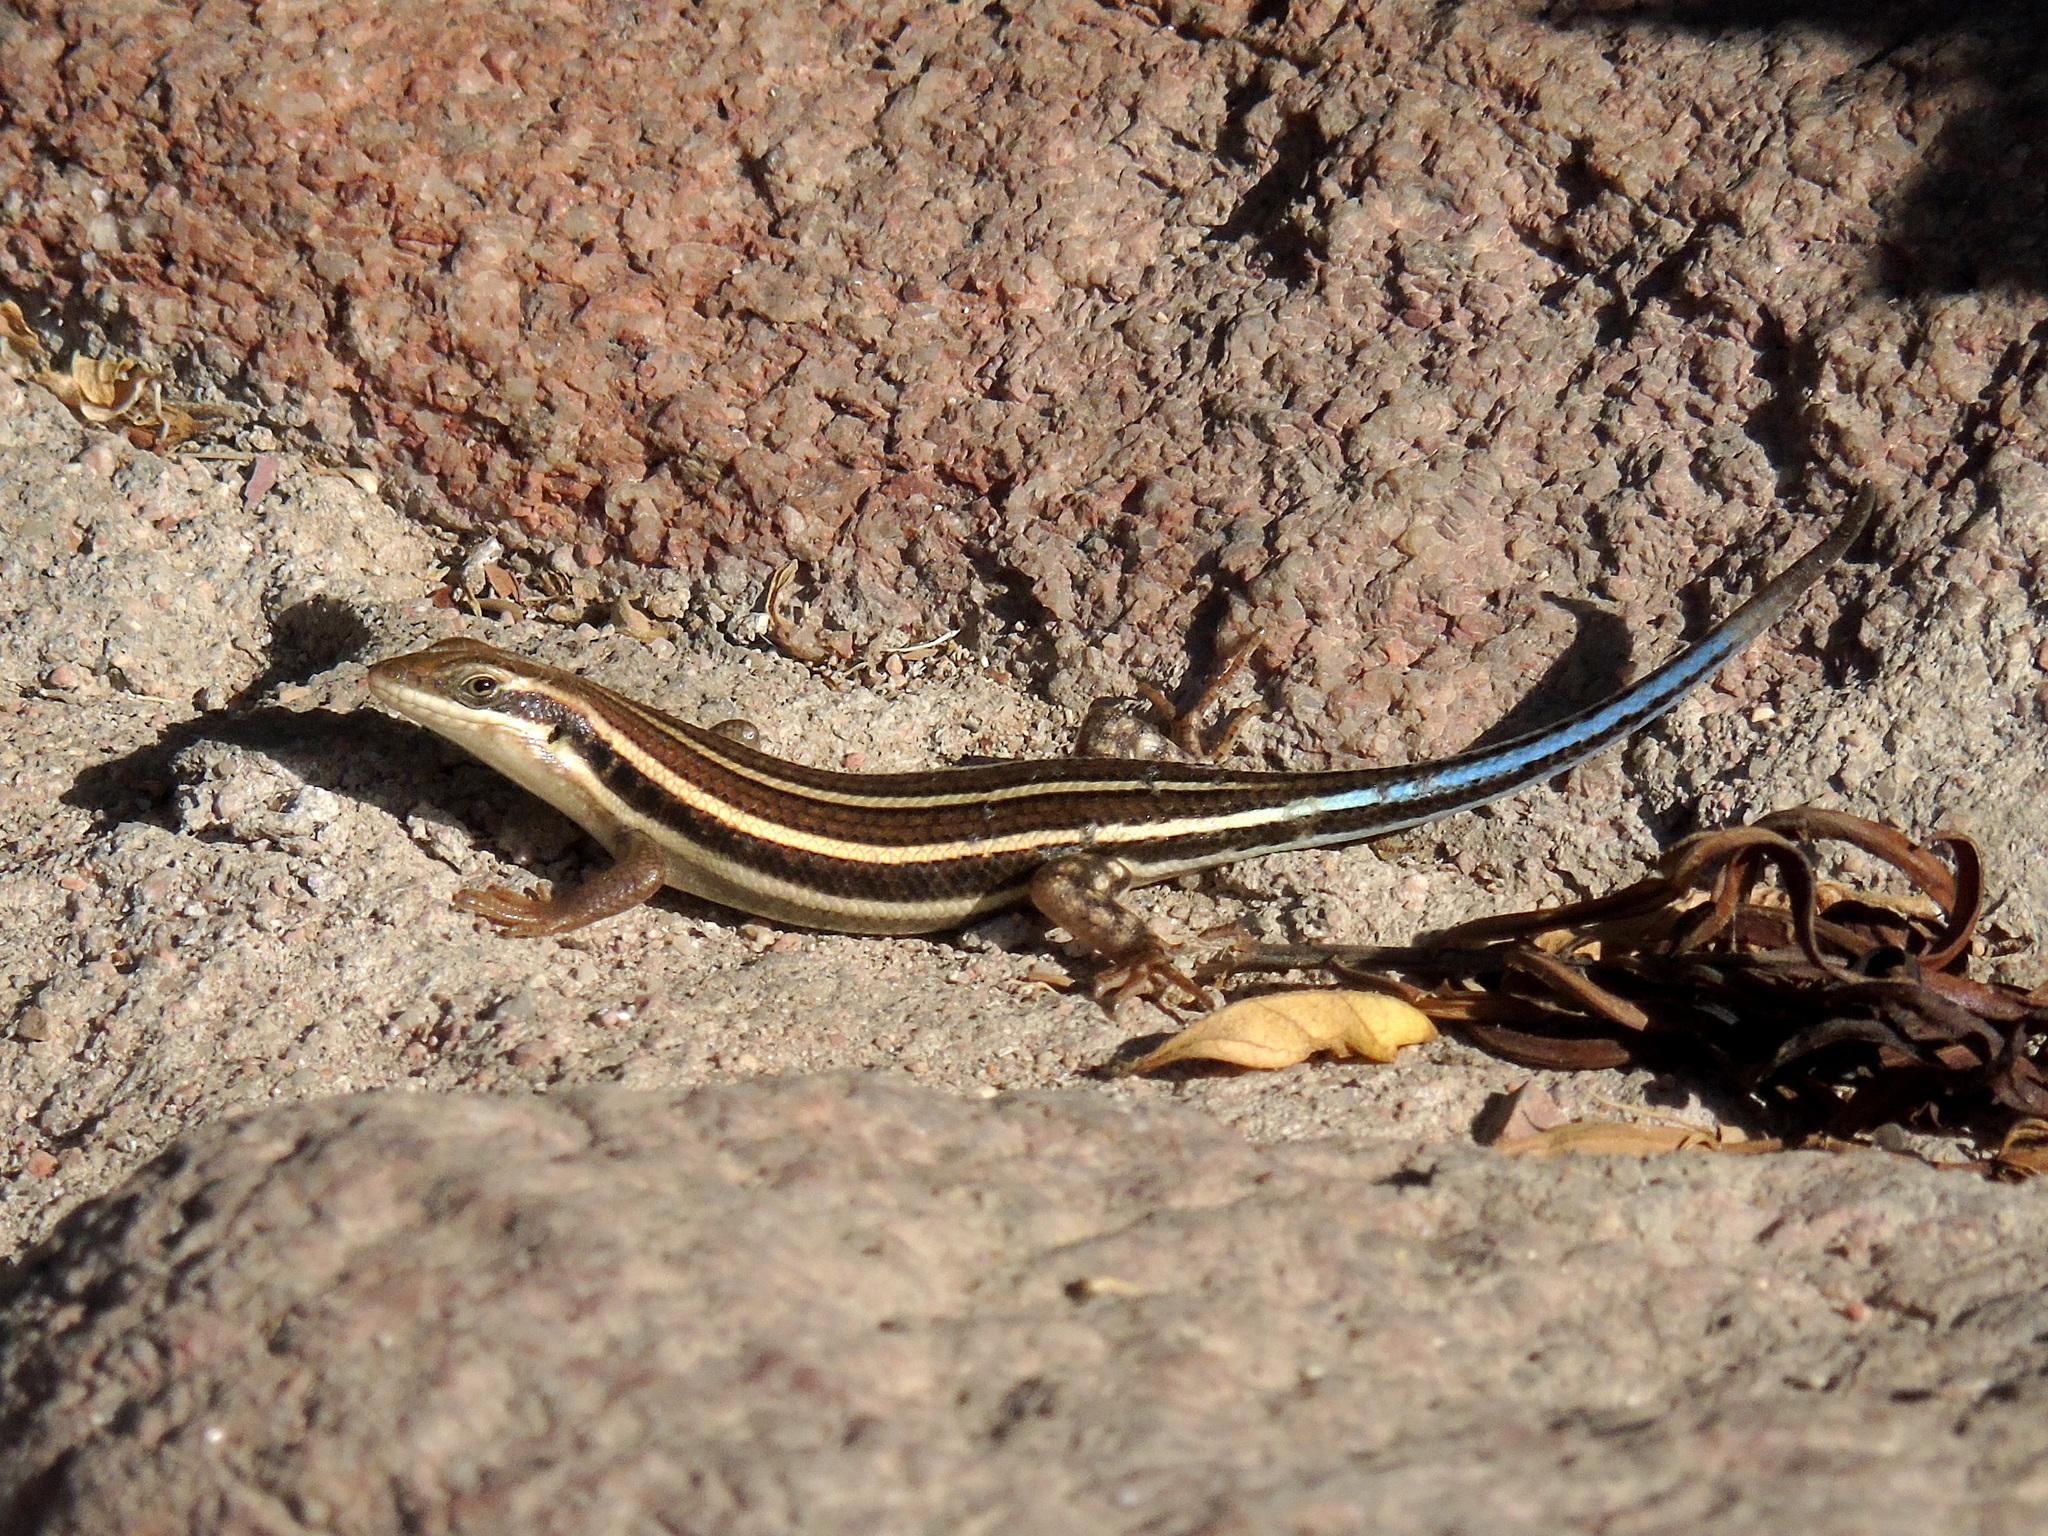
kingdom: Animalia
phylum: Chordata
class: Squamata
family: Scincidae
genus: Trachylepis
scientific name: Trachylepis quinquetaeniata
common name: African five-lined skink
